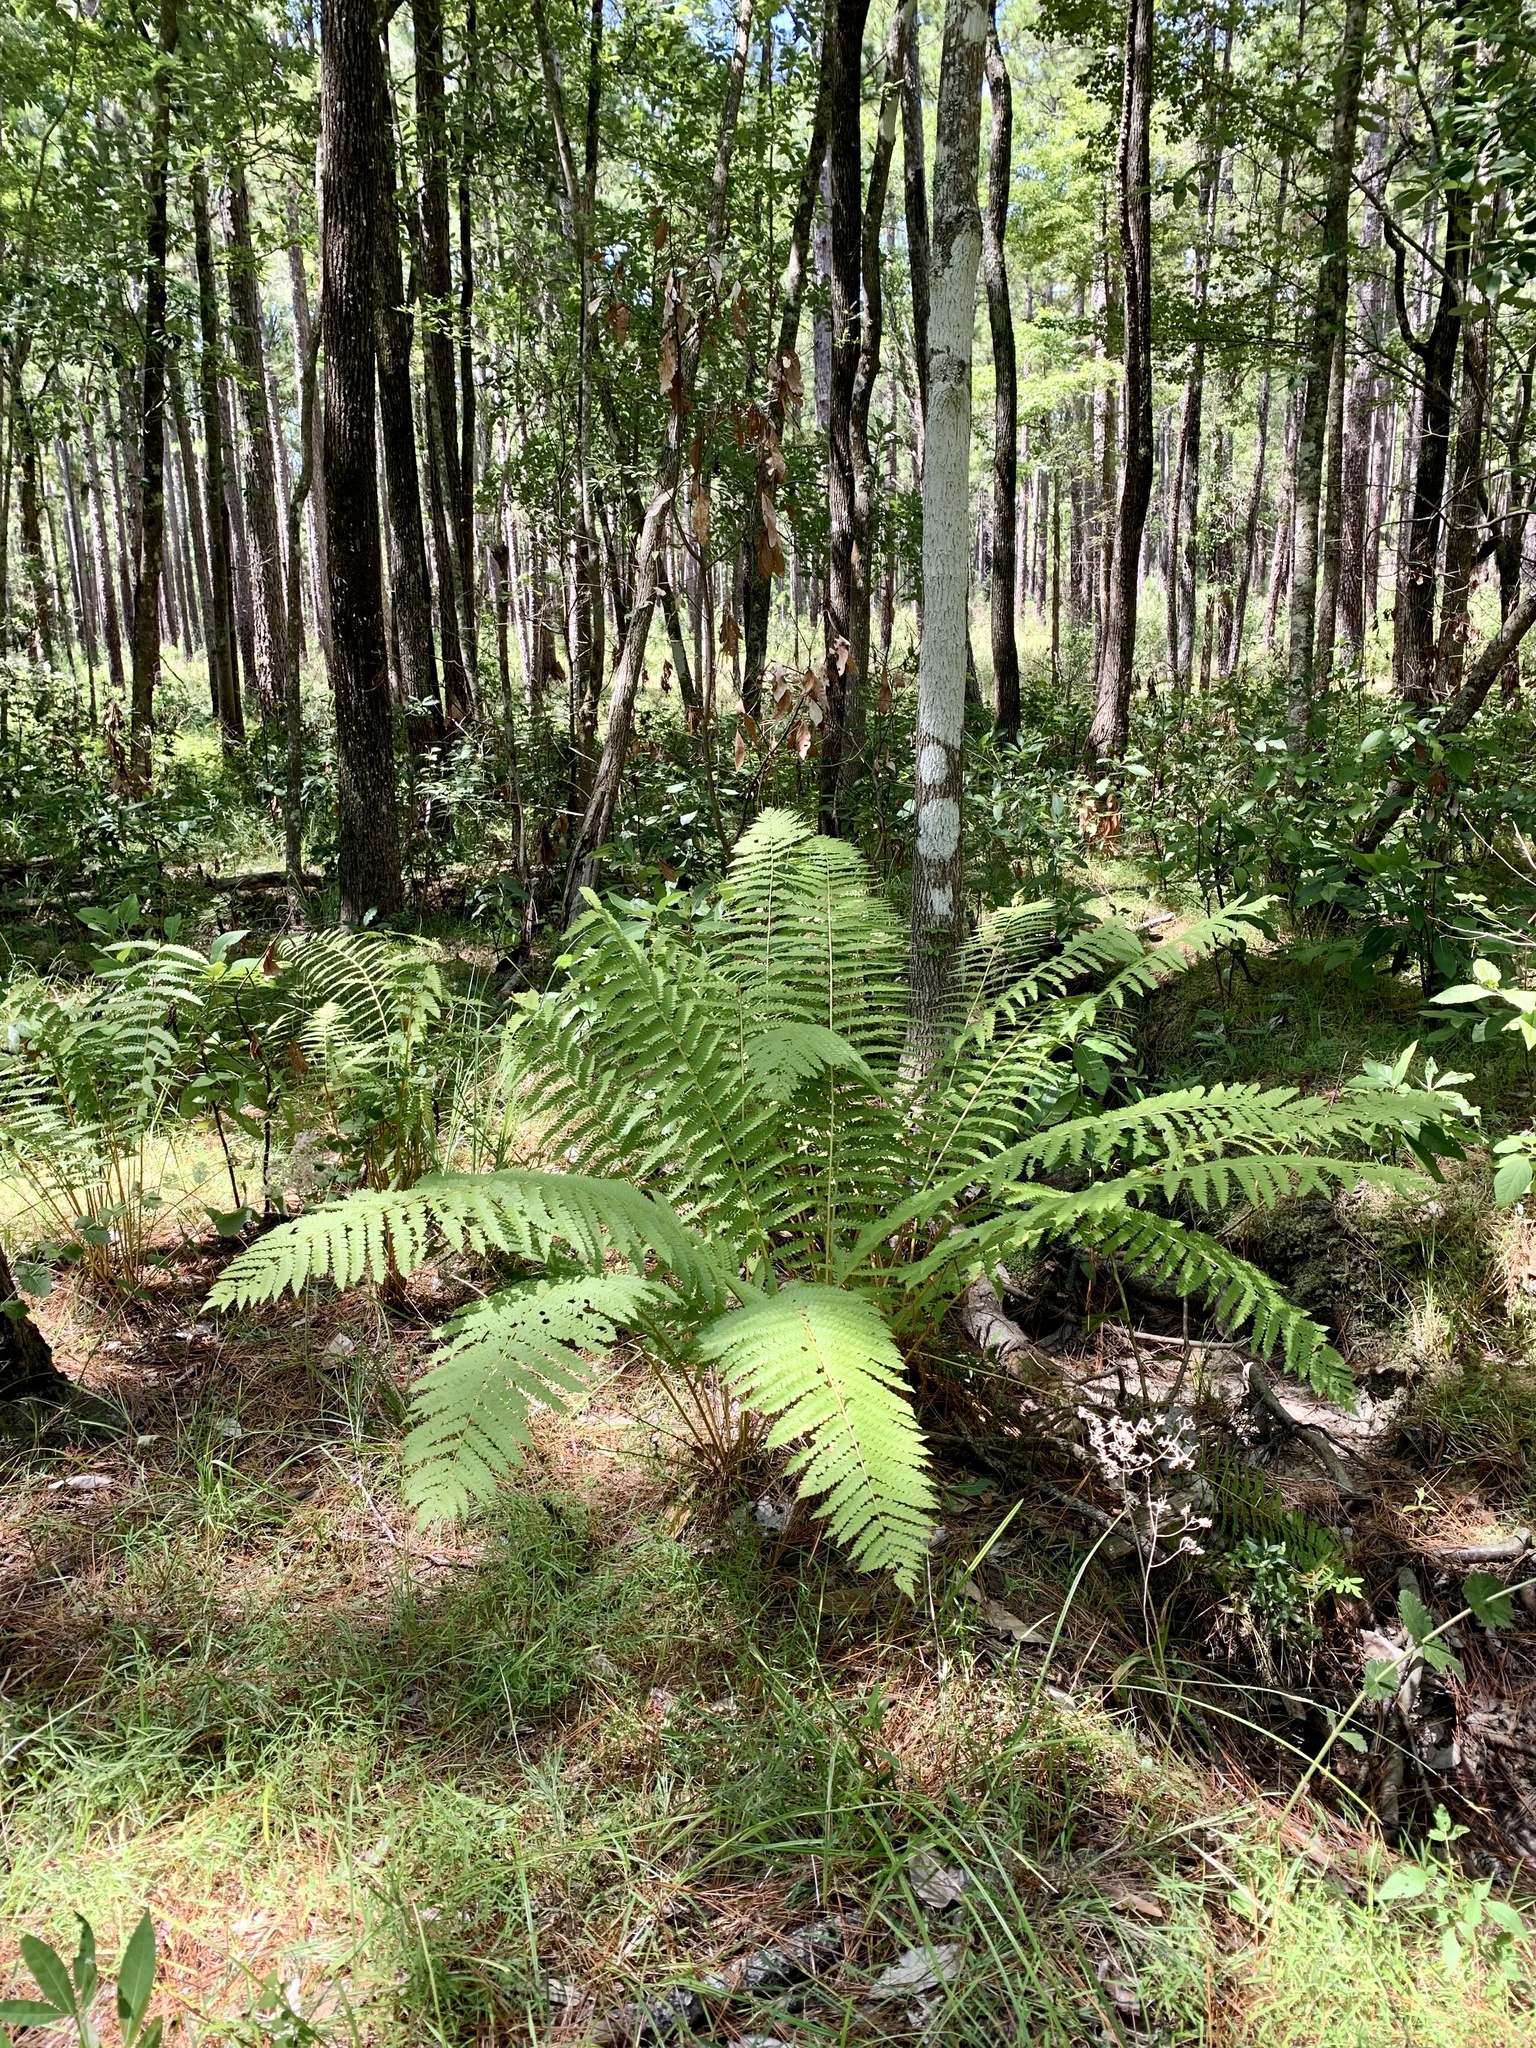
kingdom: Plantae
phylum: Tracheophyta
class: Polypodiopsida
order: Osmundales
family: Osmundaceae
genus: Osmundastrum
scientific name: Osmundastrum cinnamomeum
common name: Cinnamon fern
